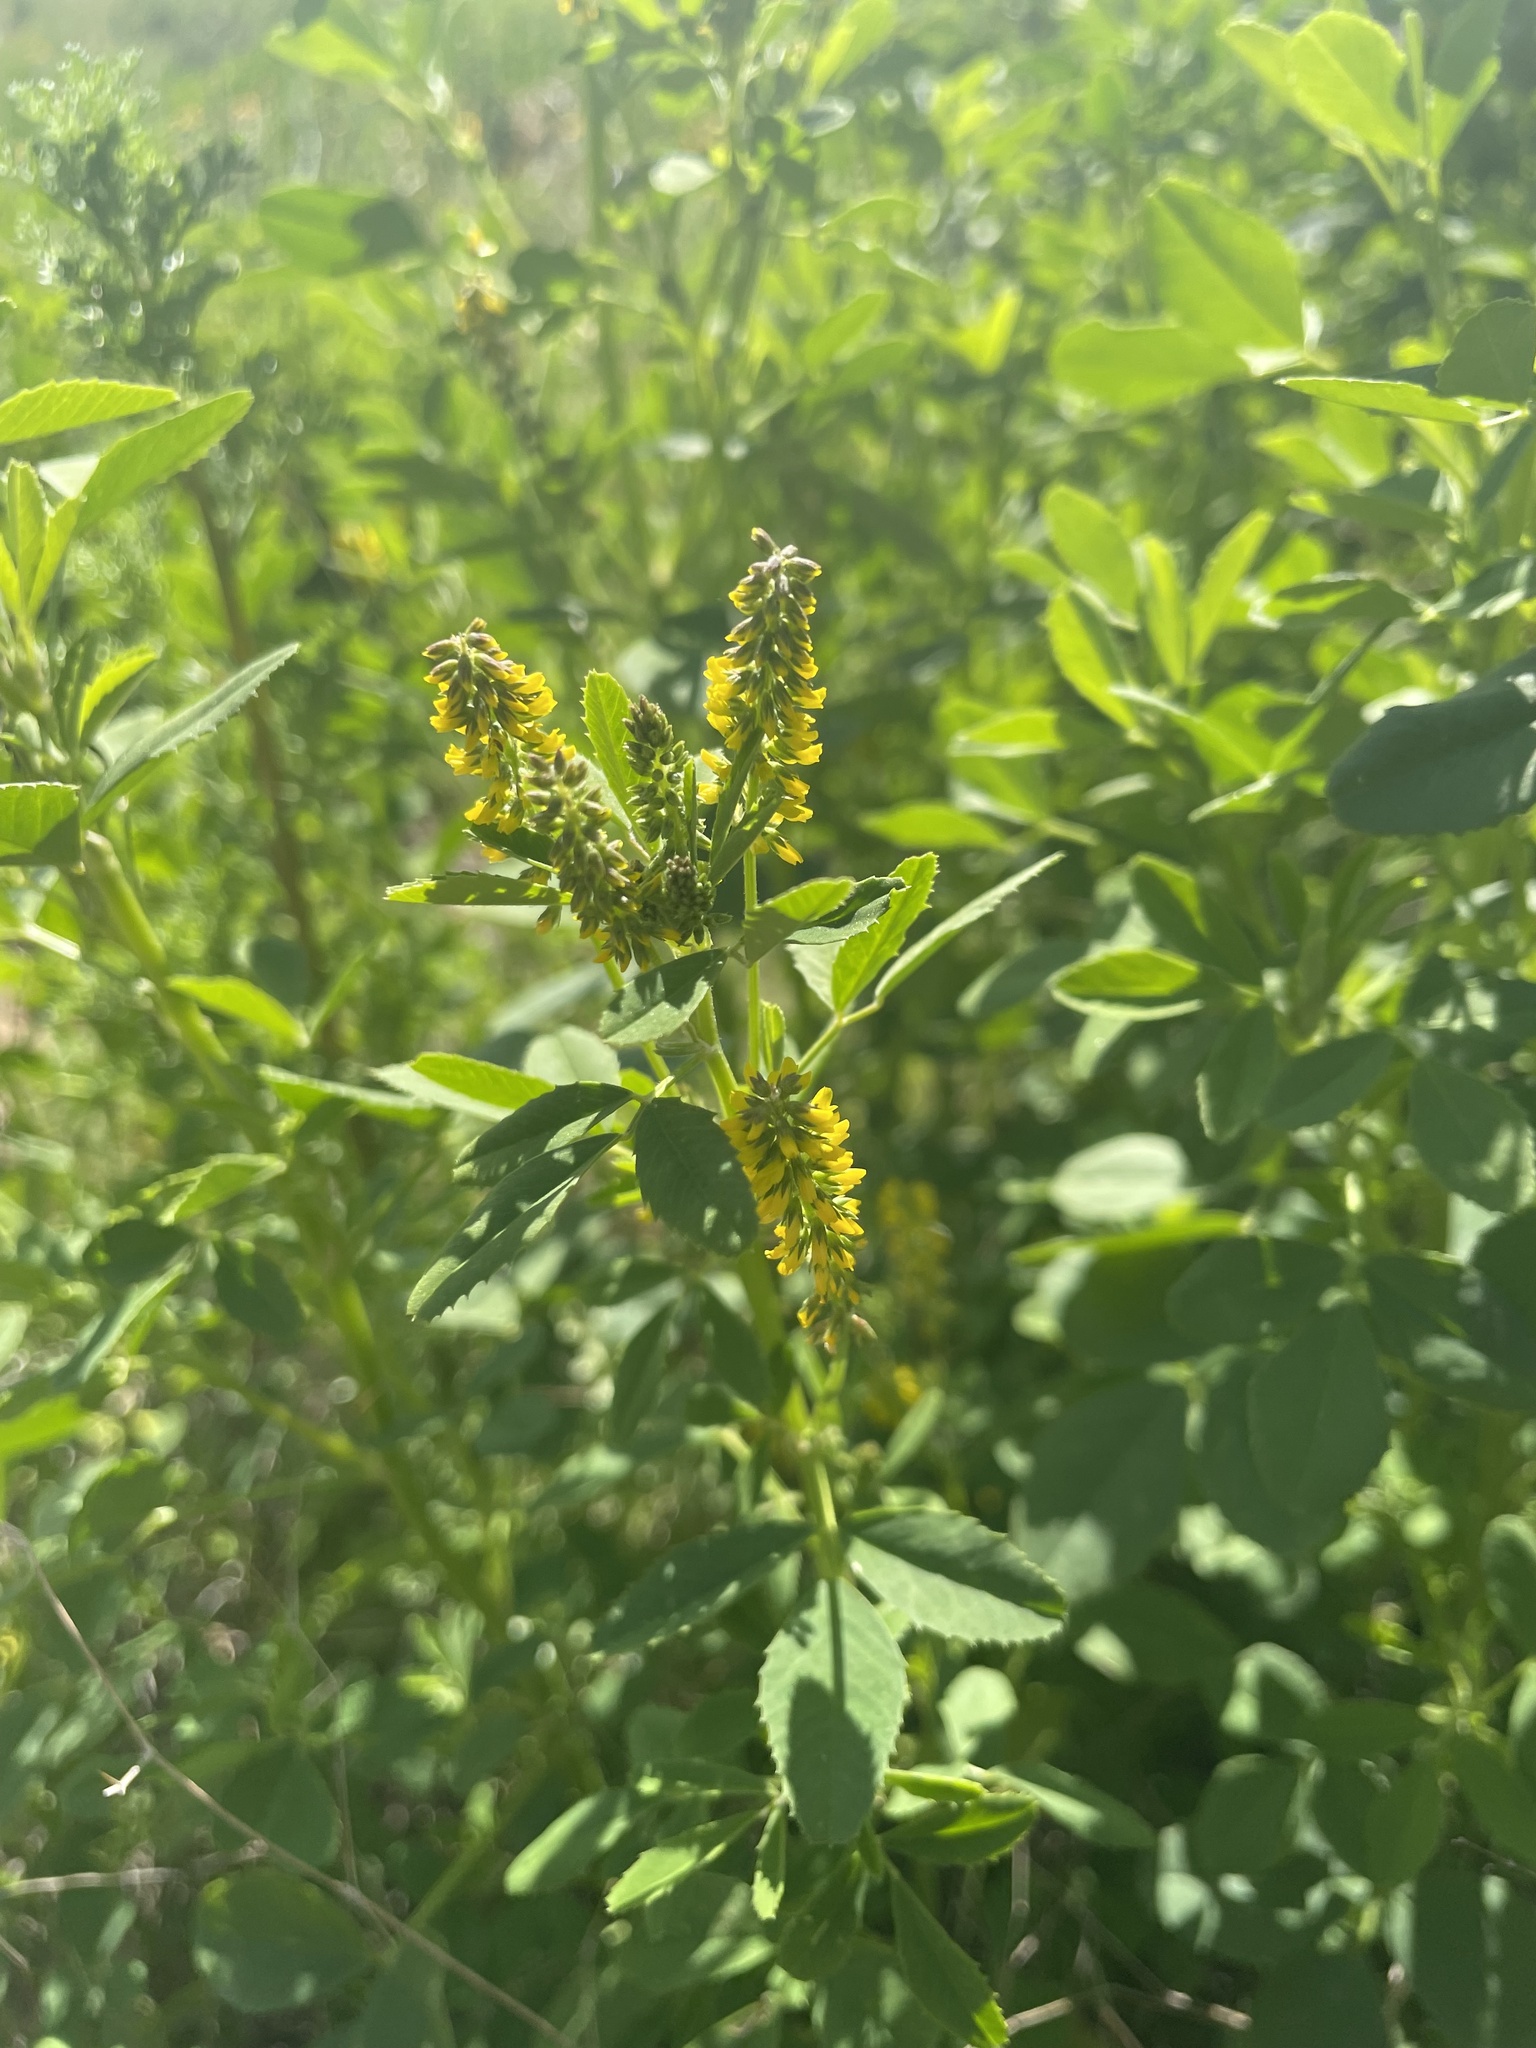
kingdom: Plantae
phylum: Tracheophyta
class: Magnoliopsida
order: Fabales
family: Fabaceae
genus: Melilotus
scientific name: Melilotus indicus
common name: Small melilot
